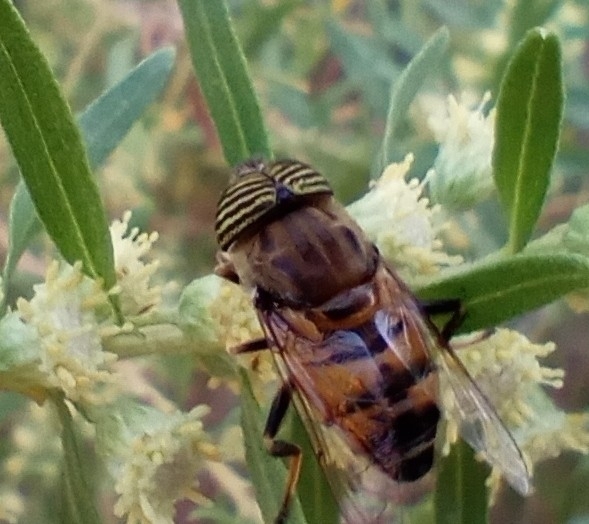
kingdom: Animalia
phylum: Arthropoda
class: Insecta
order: Diptera
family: Syrphidae
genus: Eristalinus
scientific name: Eristalinus taeniops
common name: Syrphid fly
